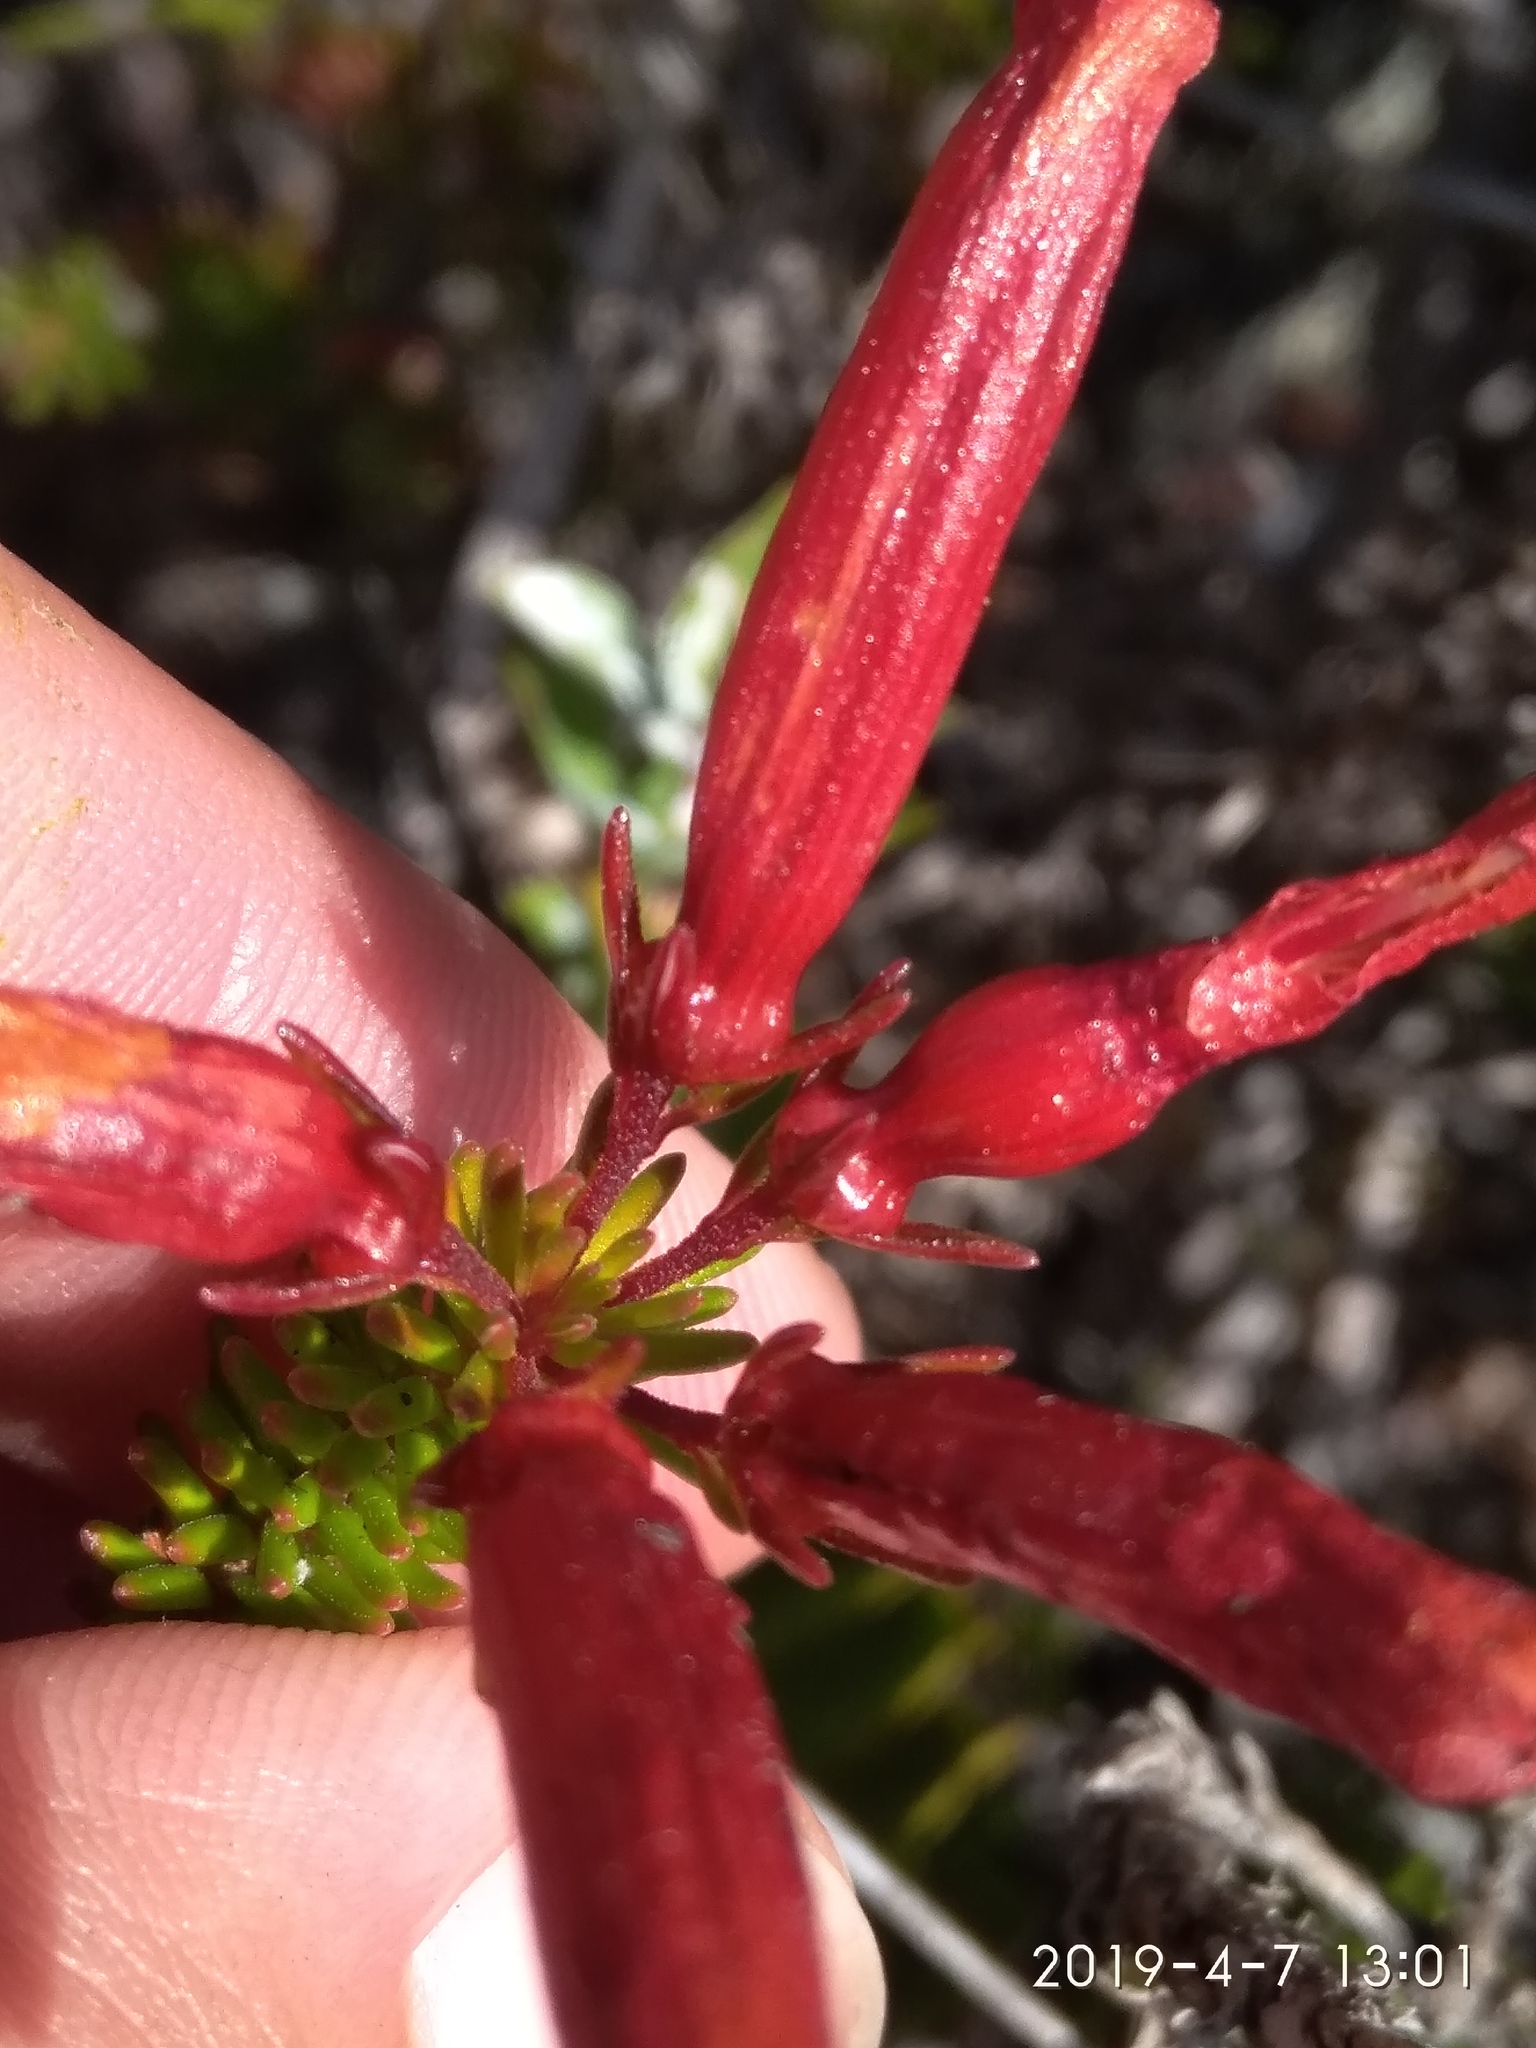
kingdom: Plantae
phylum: Tracheophyta
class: Magnoliopsida
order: Ericales
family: Ericaceae
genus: Erica
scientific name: Erica nevillei
